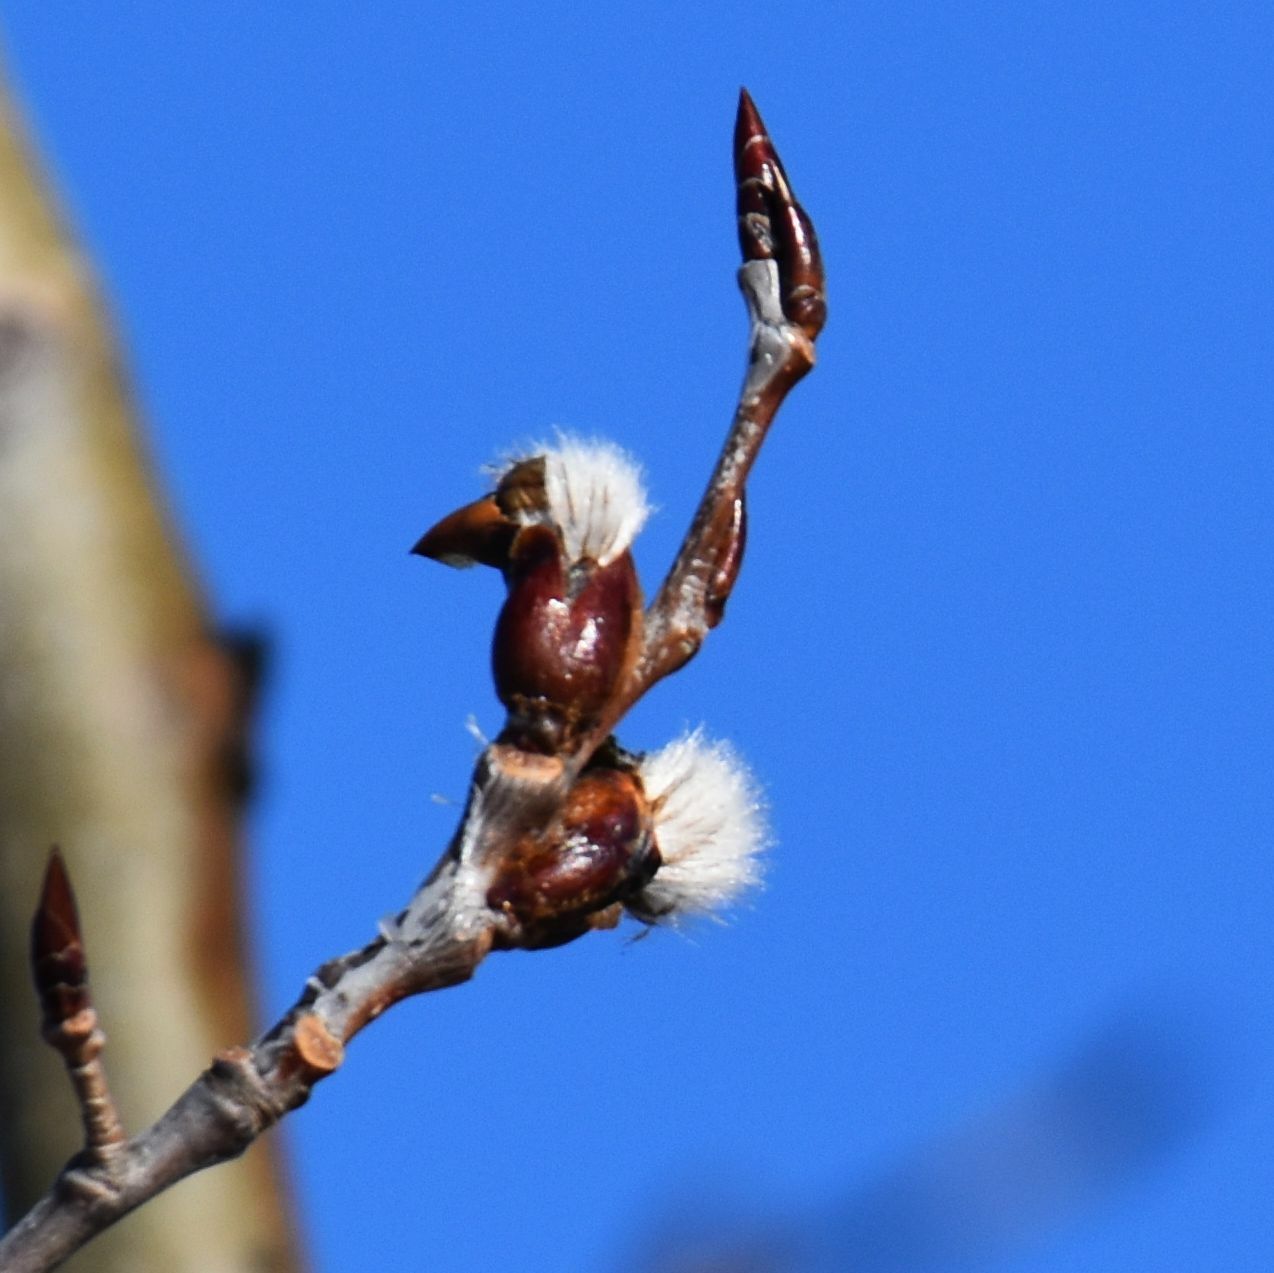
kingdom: Plantae
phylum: Tracheophyta
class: Magnoliopsida
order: Malpighiales
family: Salicaceae
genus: Populus
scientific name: Populus tremuloides
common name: Quaking aspen
